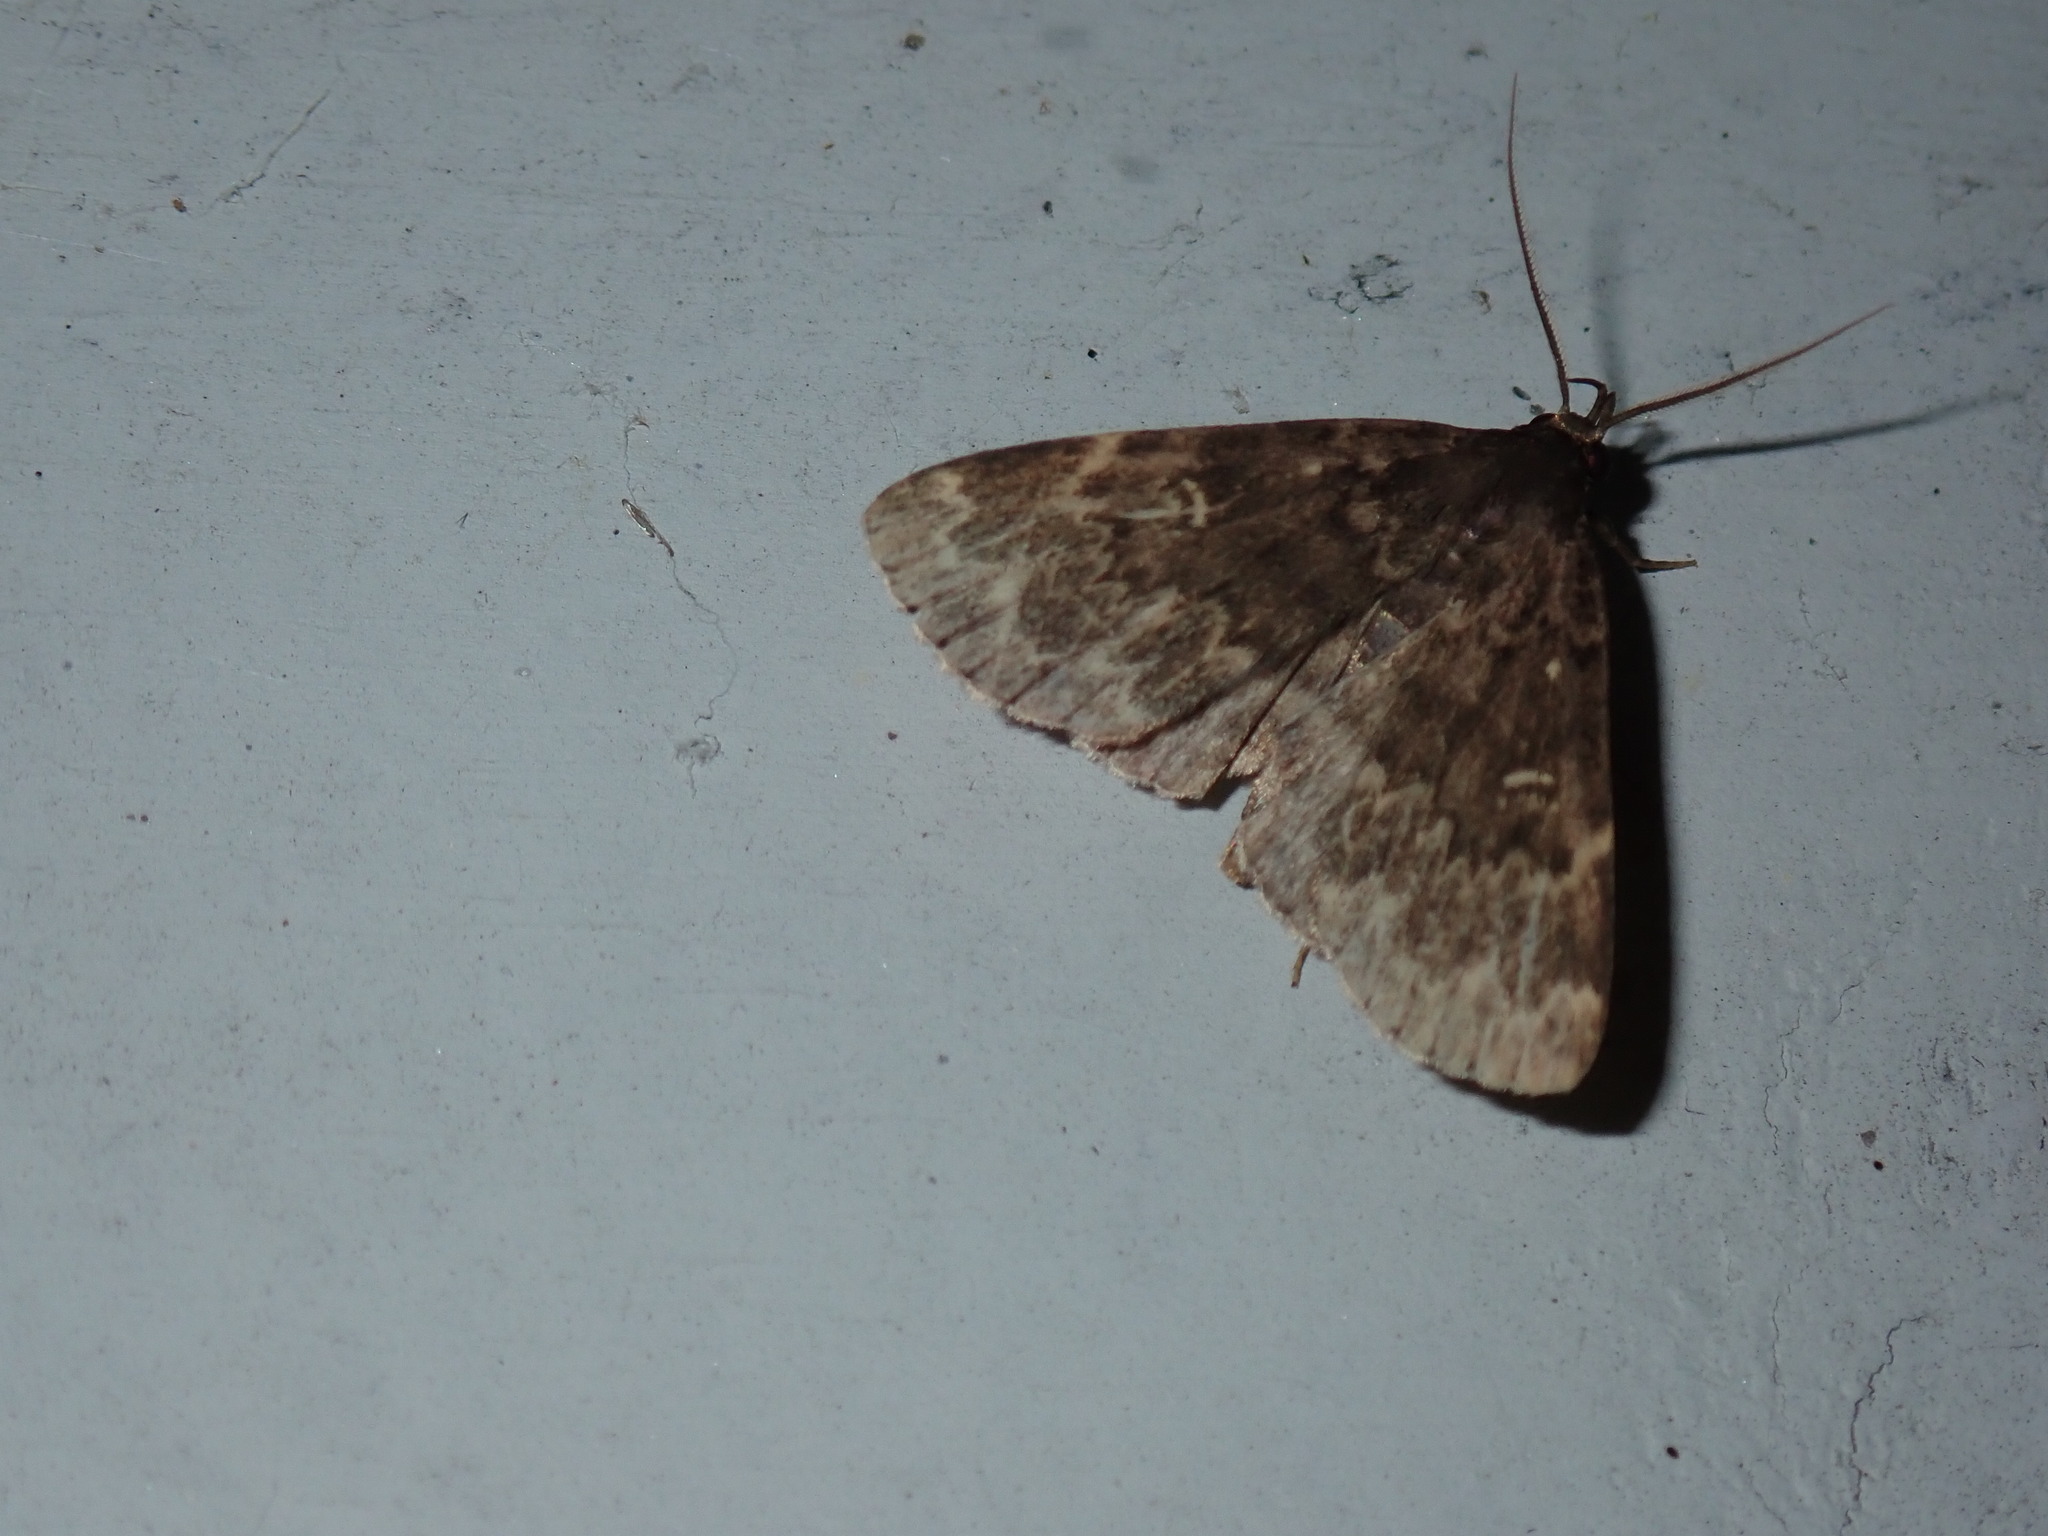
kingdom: Animalia
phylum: Arthropoda
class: Insecta
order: Lepidoptera
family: Erebidae
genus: Idia
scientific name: Idia lubricalis
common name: Twin-striped tabby
